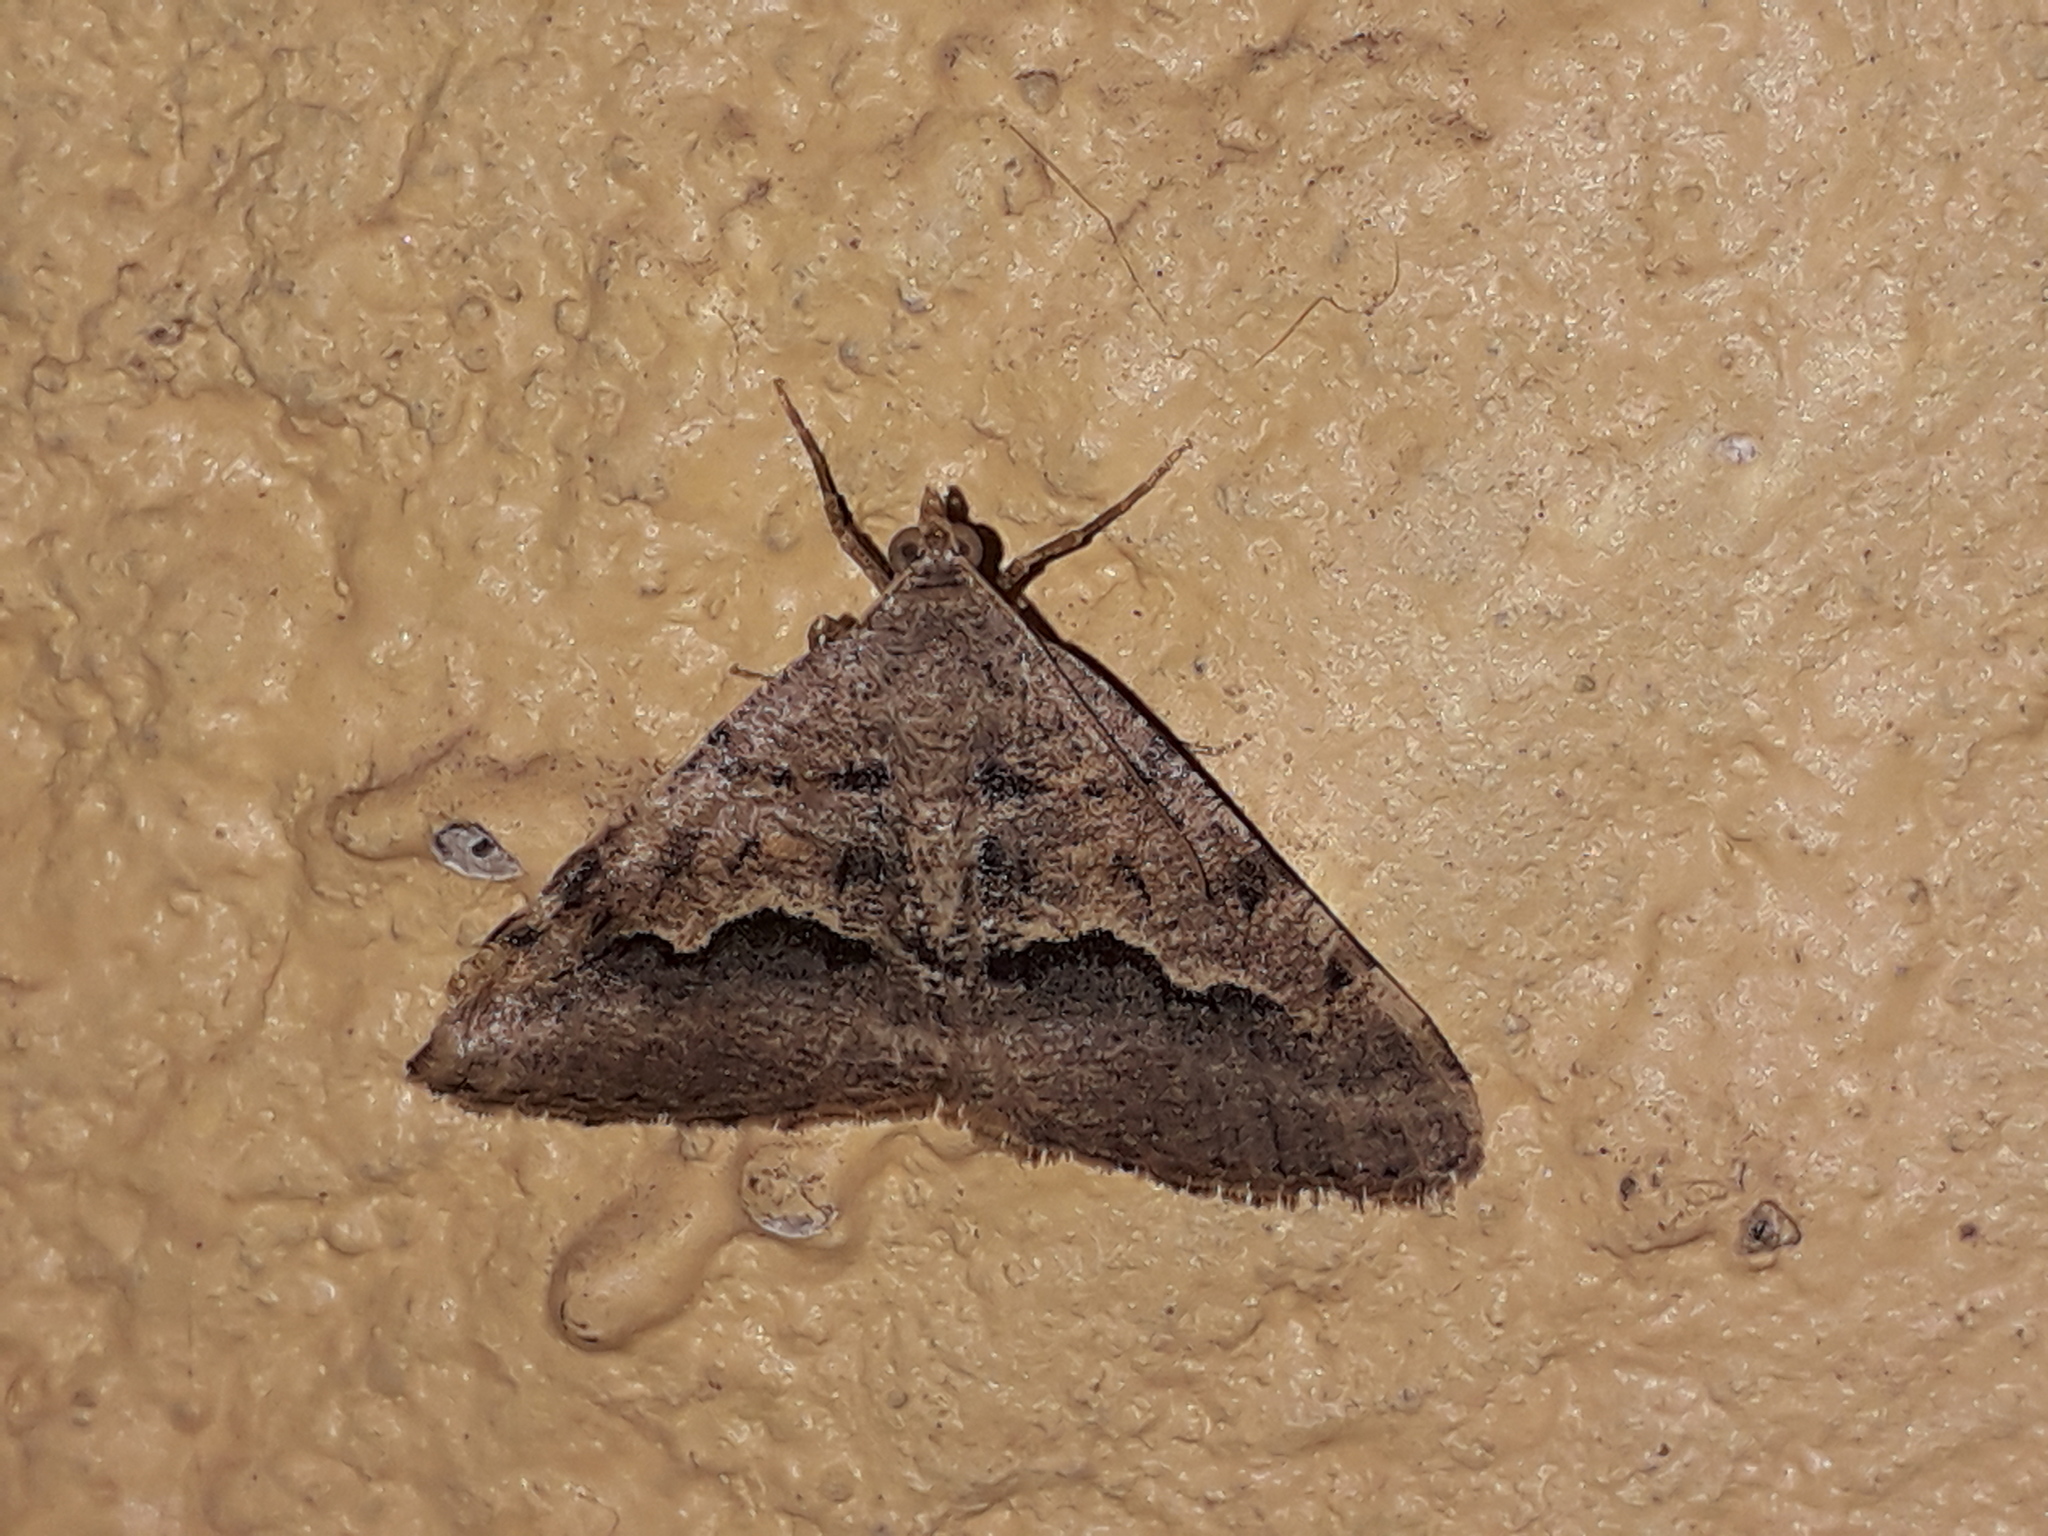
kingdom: Animalia
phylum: Arthropoda
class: Insecta
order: Lepidoptera
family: Geometridae
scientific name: Geometridae
